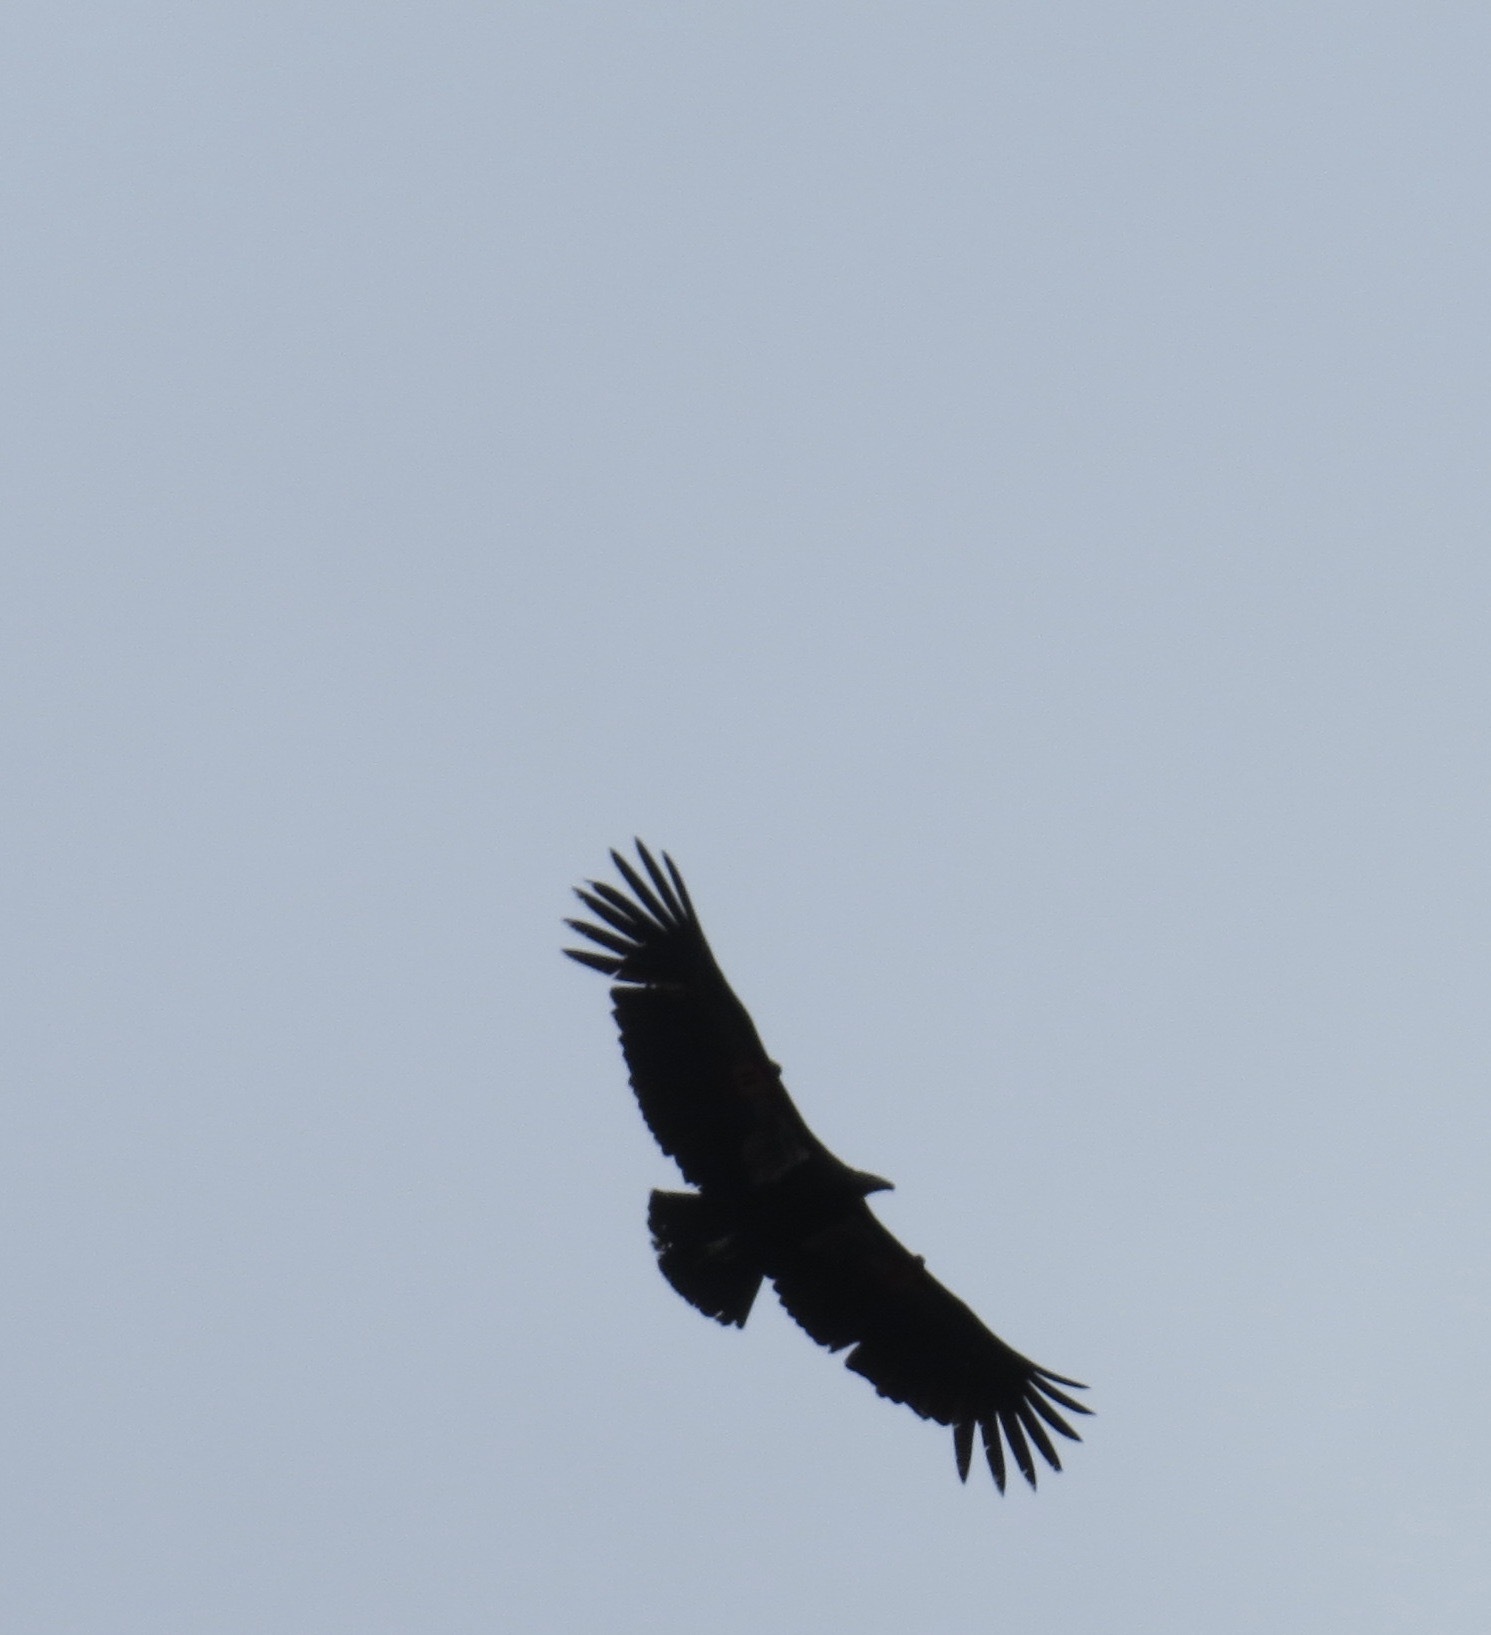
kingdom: Animalia
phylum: Chordata
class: Aves
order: Accipitriformes
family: Cathartidae
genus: Gymnogyps
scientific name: Gymnogyps californianus
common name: California condor
